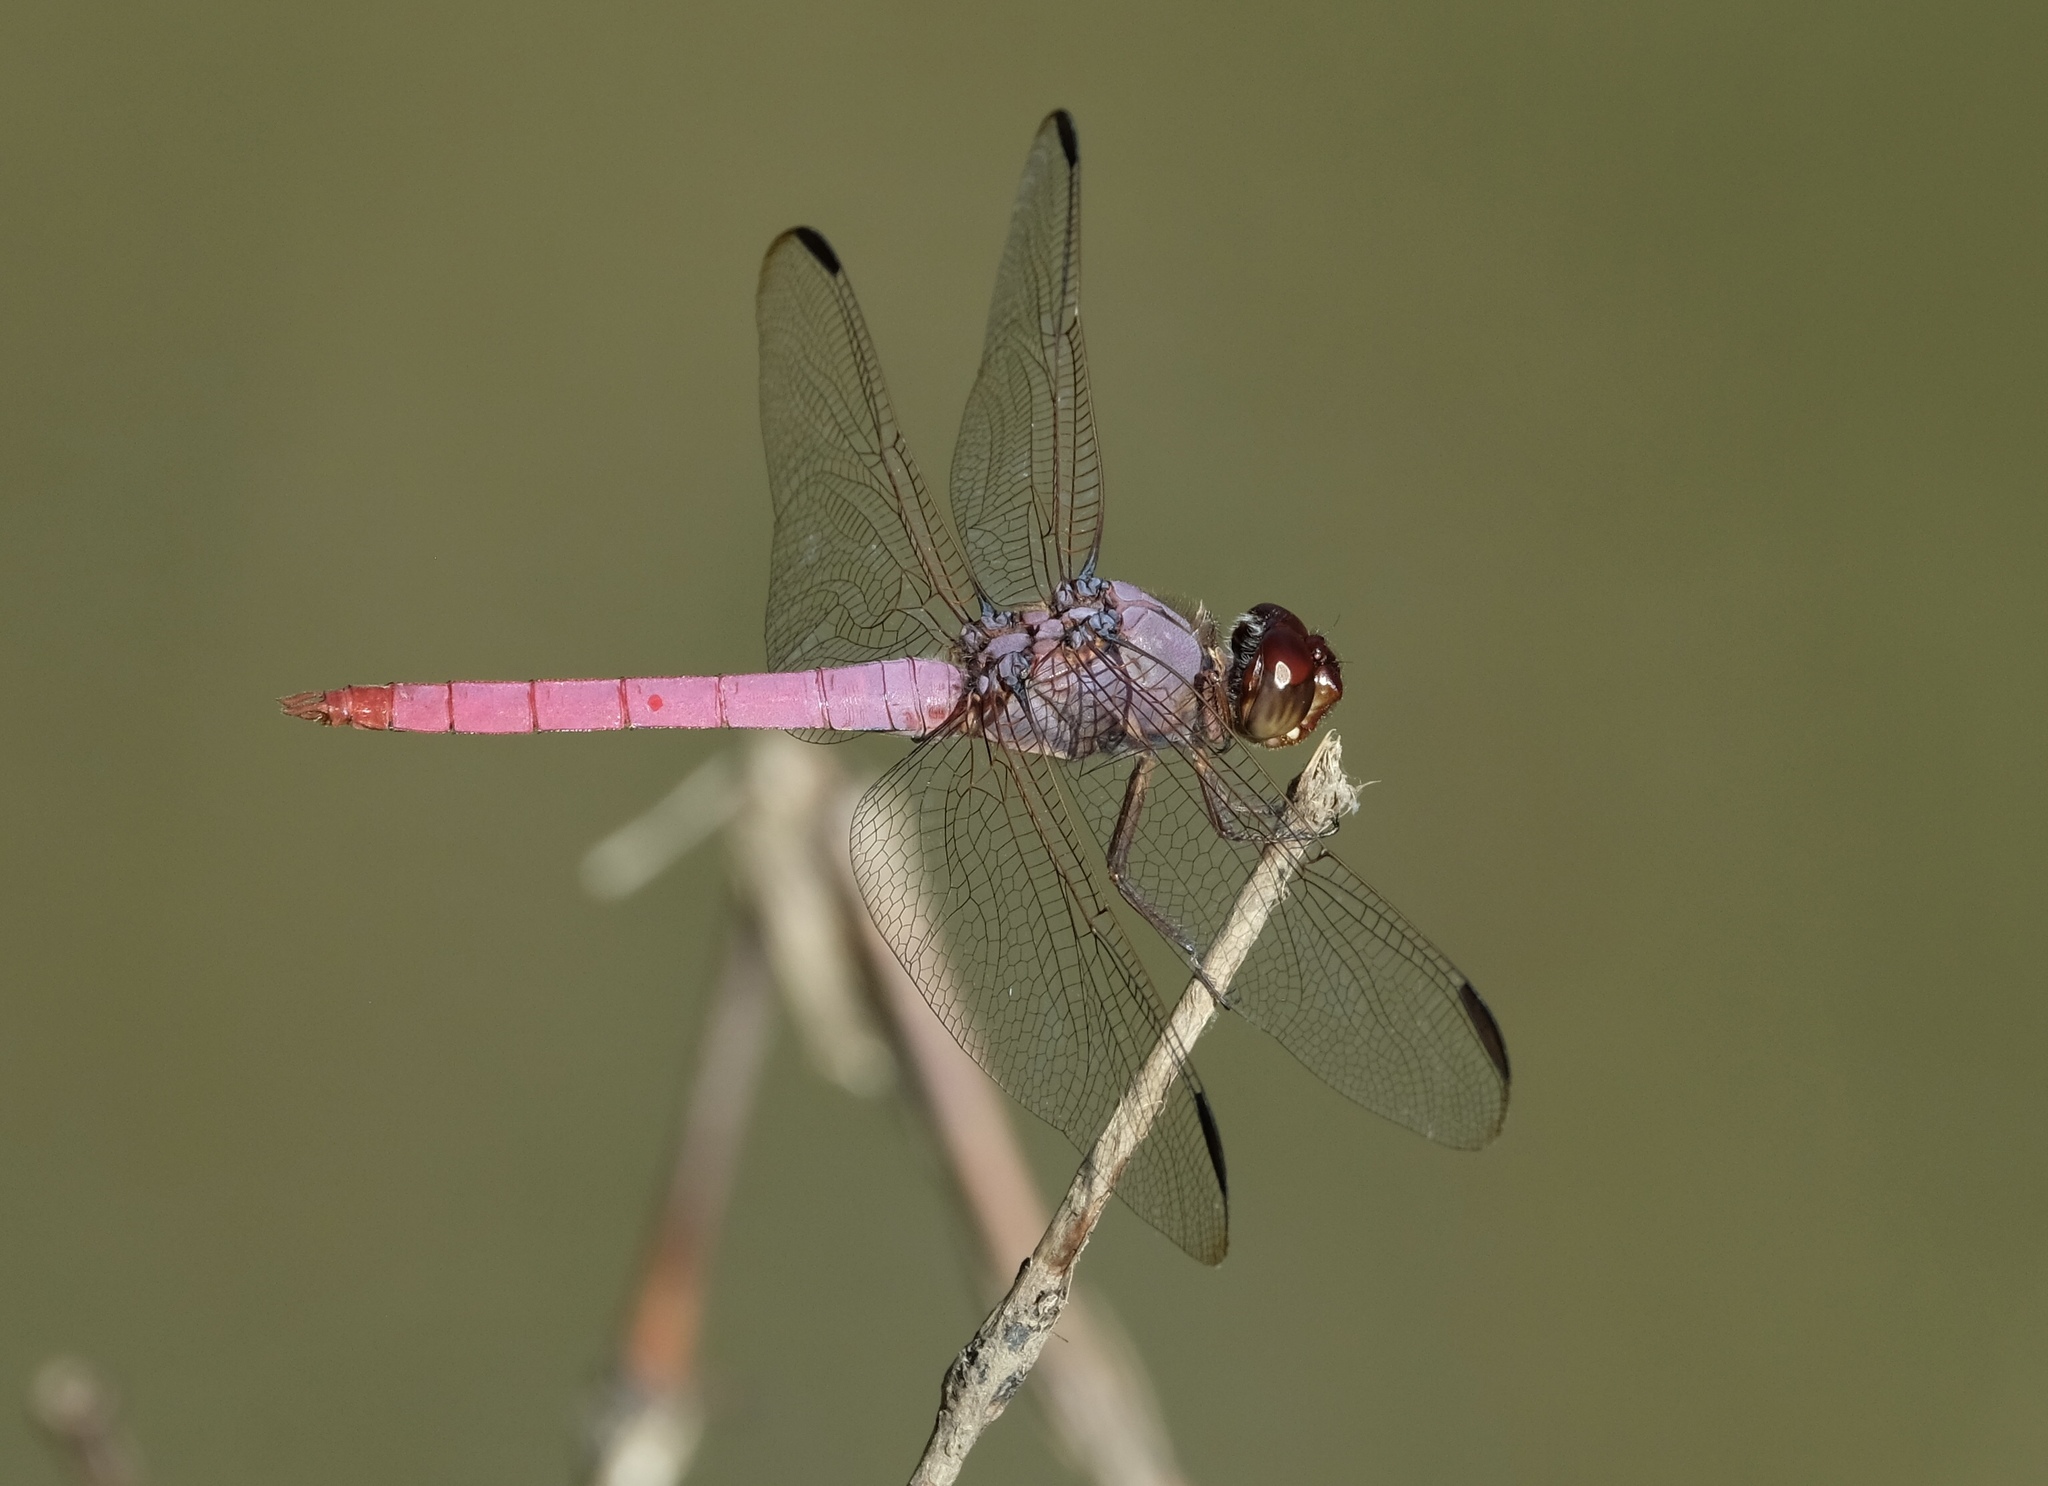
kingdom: Animalia
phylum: Arthropoda
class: Insecta
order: Odonata
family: Libellulidae
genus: Orthemis
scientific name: Orthemis ferruginea
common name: Roseate skimmer
